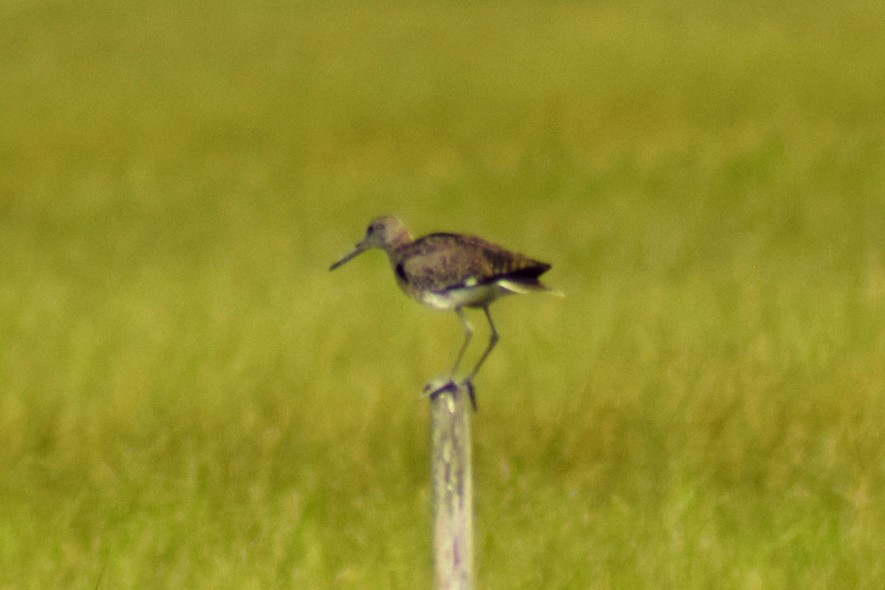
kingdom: Animalia
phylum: Chordata
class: Aves
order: Charadriiformes
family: Scolopacidae
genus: Tringa
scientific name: Tringa semipalmata
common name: Willet
